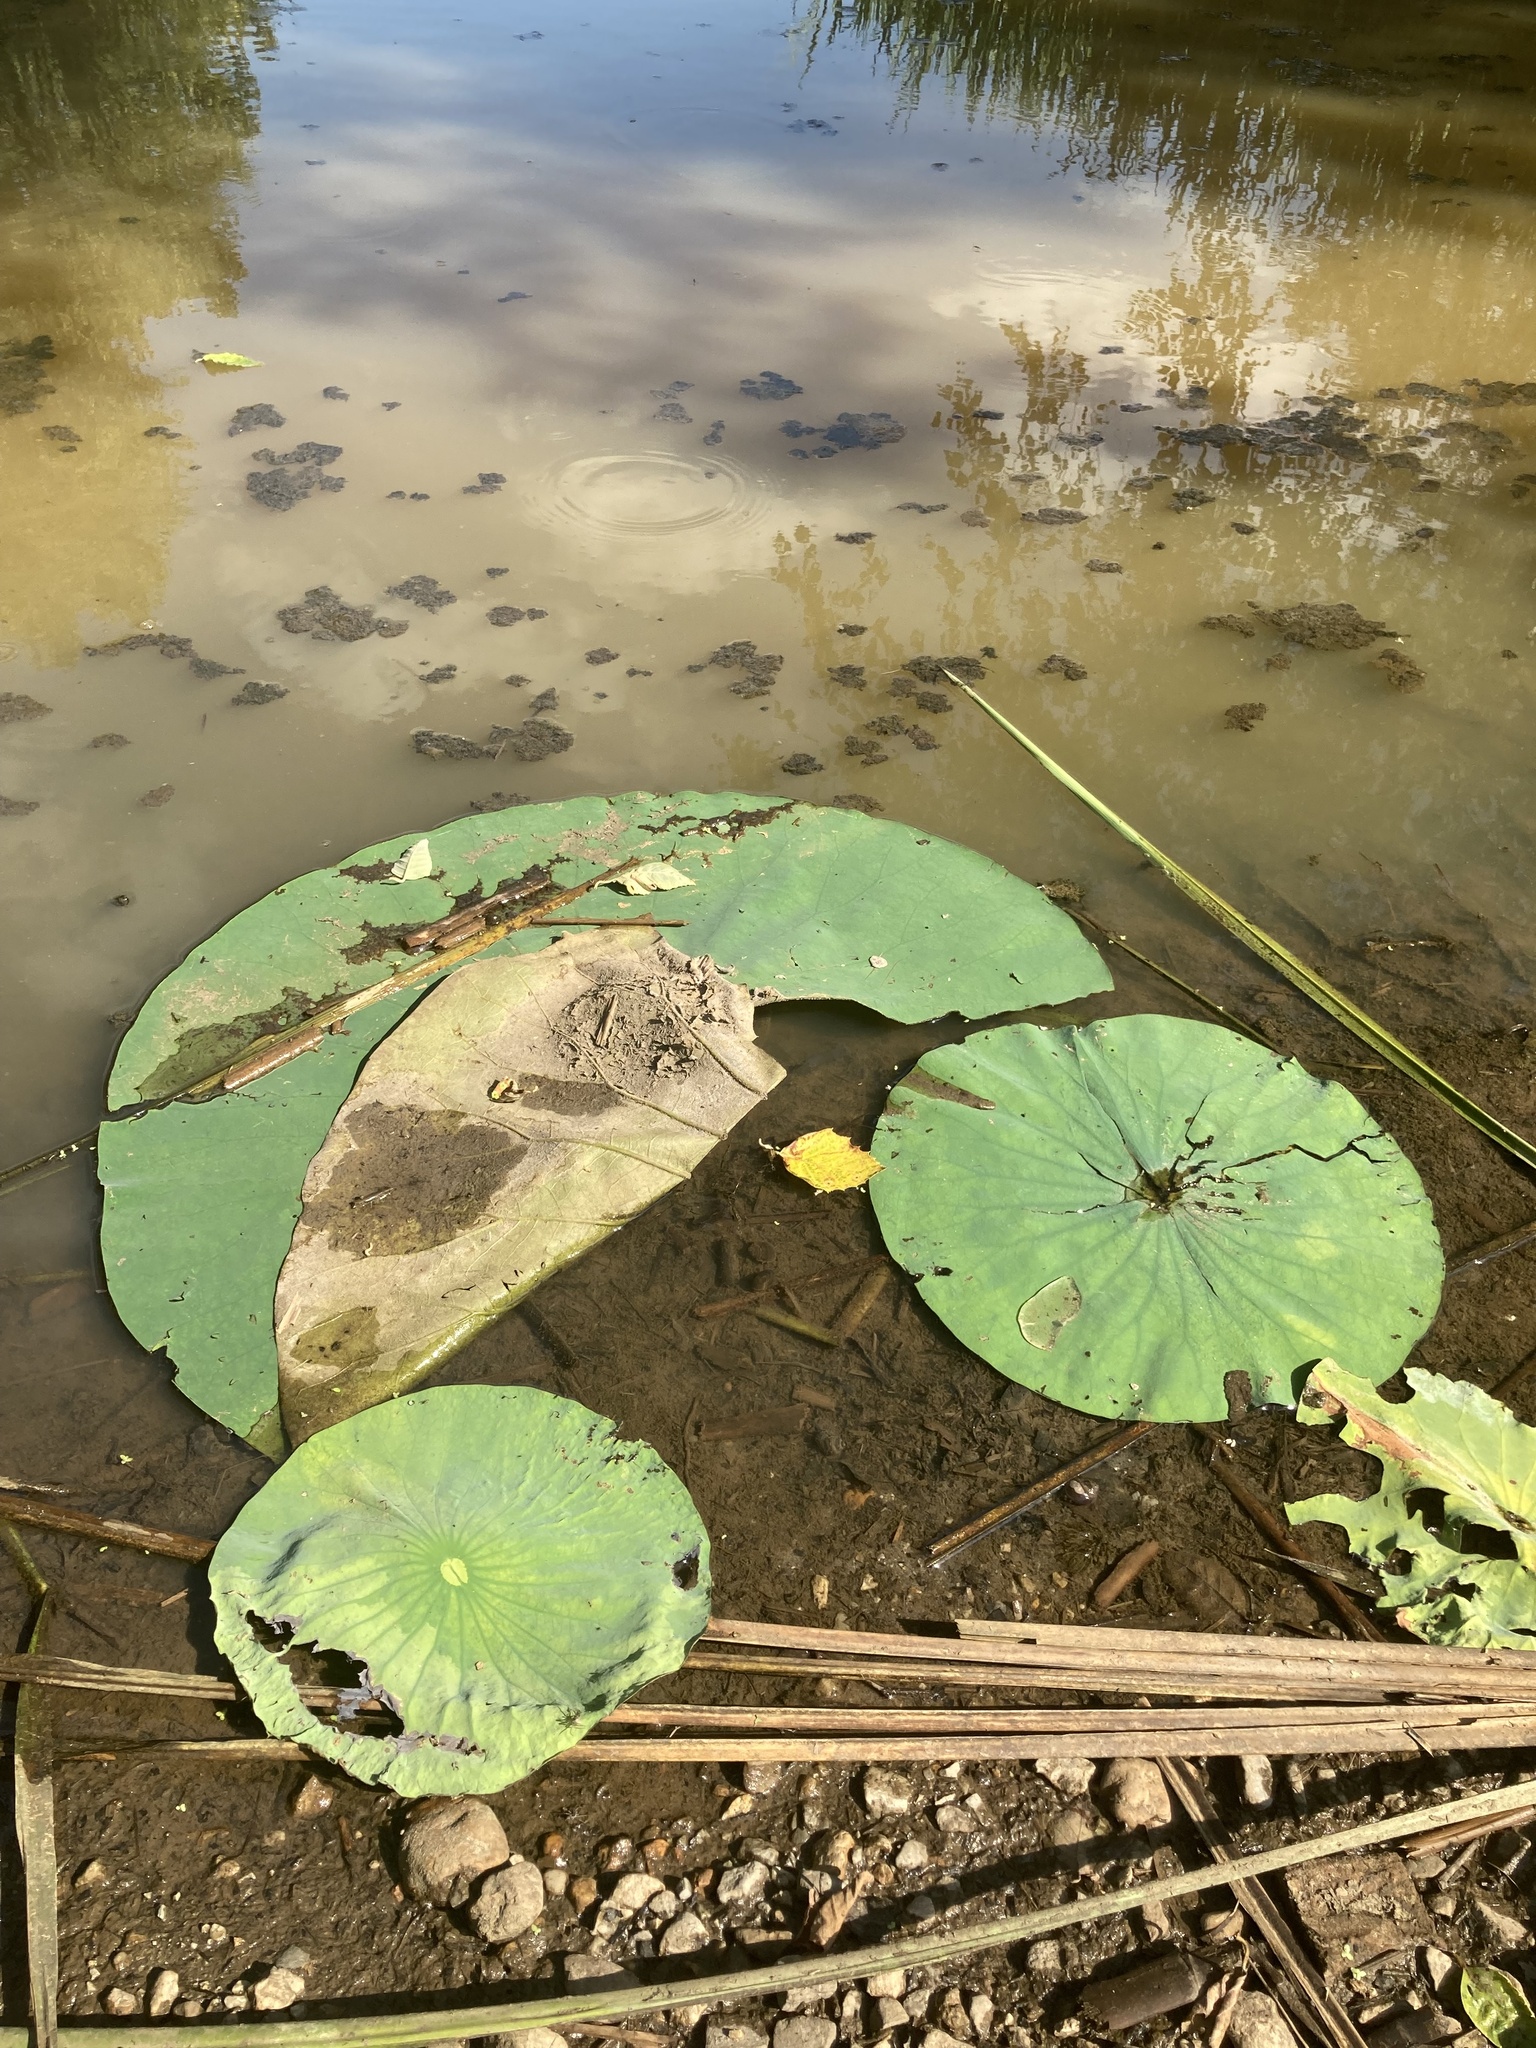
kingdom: Plantae
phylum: Tracheophyta
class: Magnoliopsida
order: Proteales
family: Nelumbonaceae
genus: Nelumbo
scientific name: Nelumbo lutea
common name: American lotus
